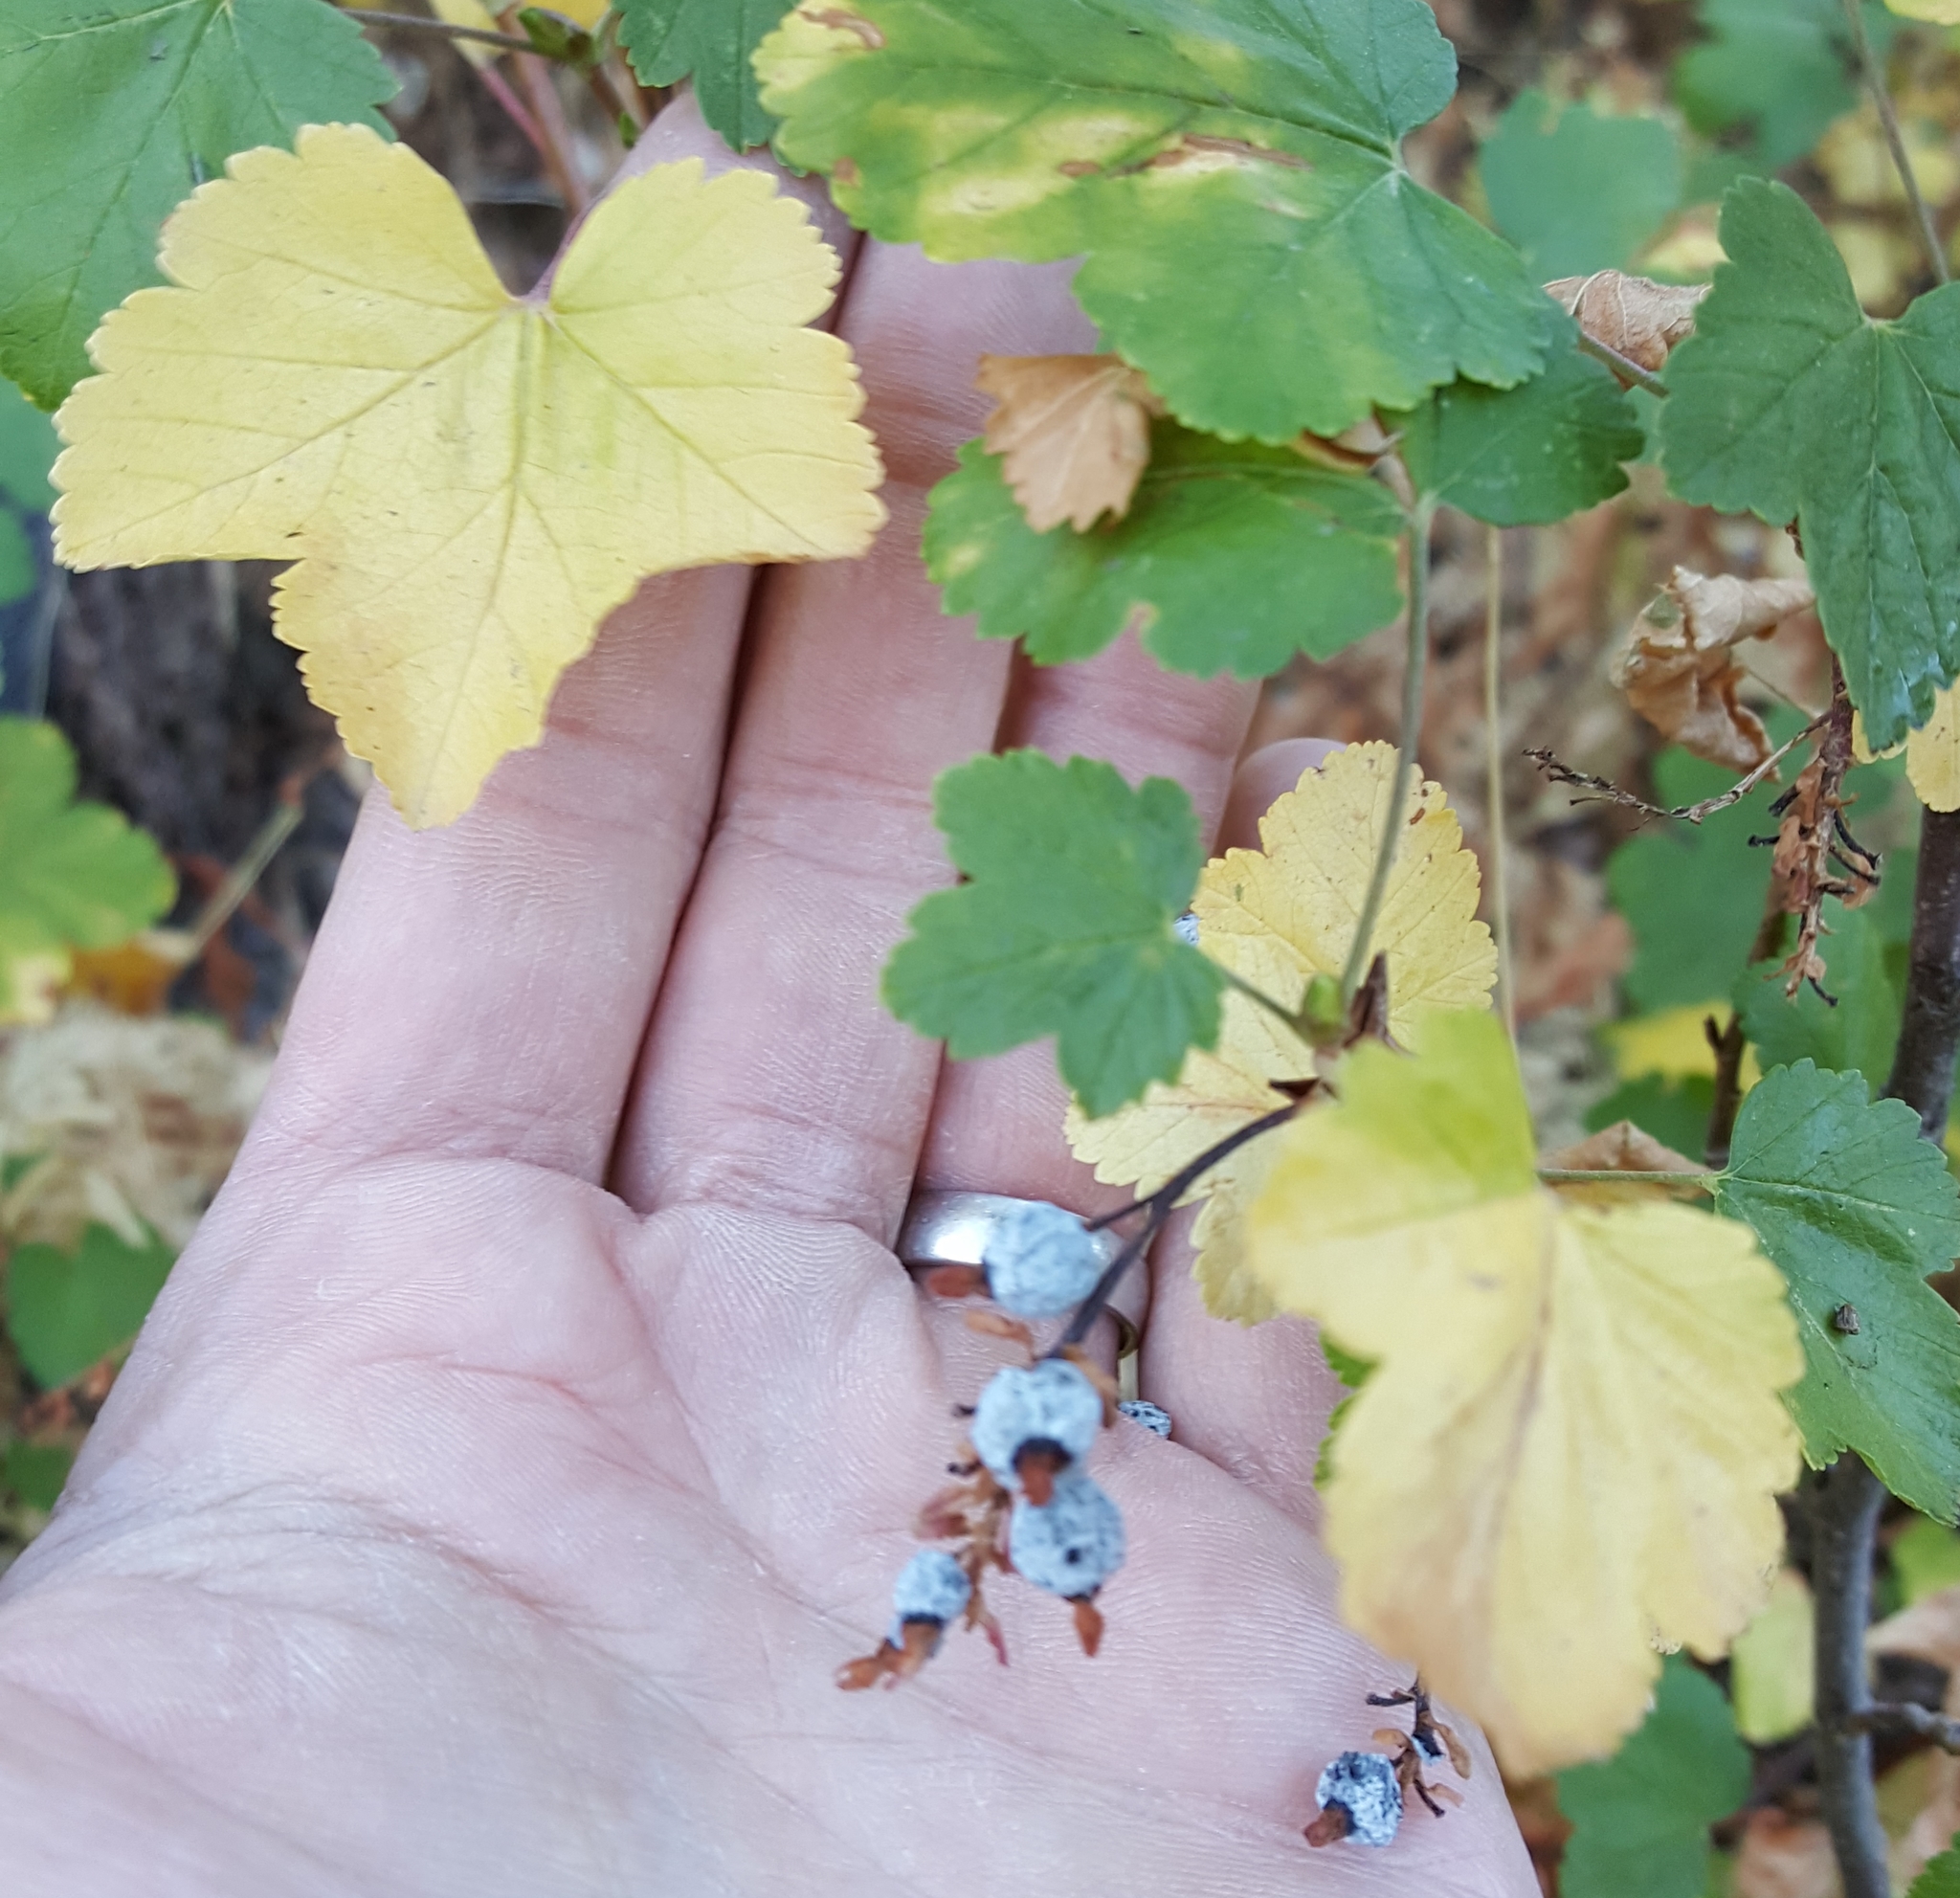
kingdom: Plantae
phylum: Tracheophyta
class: Magnoliopsida
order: Saxifragales
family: Grossulariaceae
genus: Ribes
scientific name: Ribes nevadense
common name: Mountain pink currant
